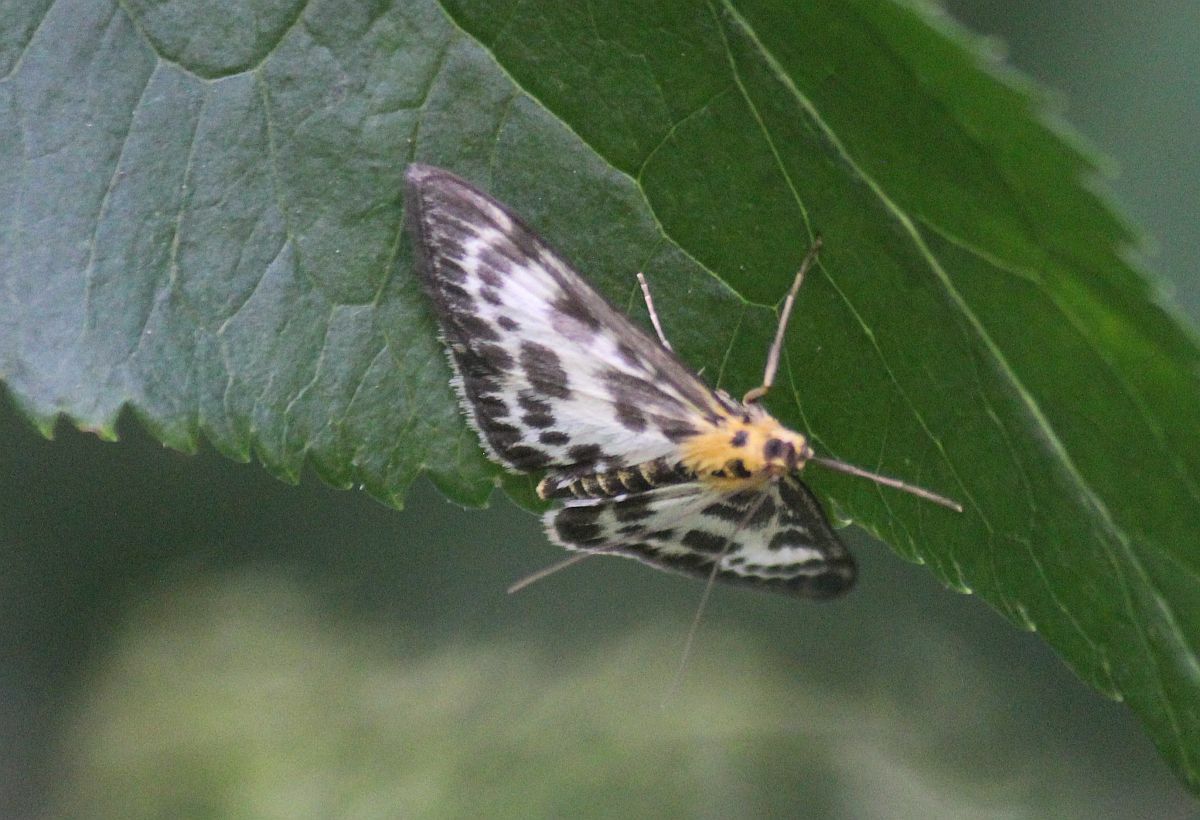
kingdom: Animalia
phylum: Arthropoda
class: Insecta
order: Lepidoptera
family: Crambidae
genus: Anania
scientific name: Anania hortulata
